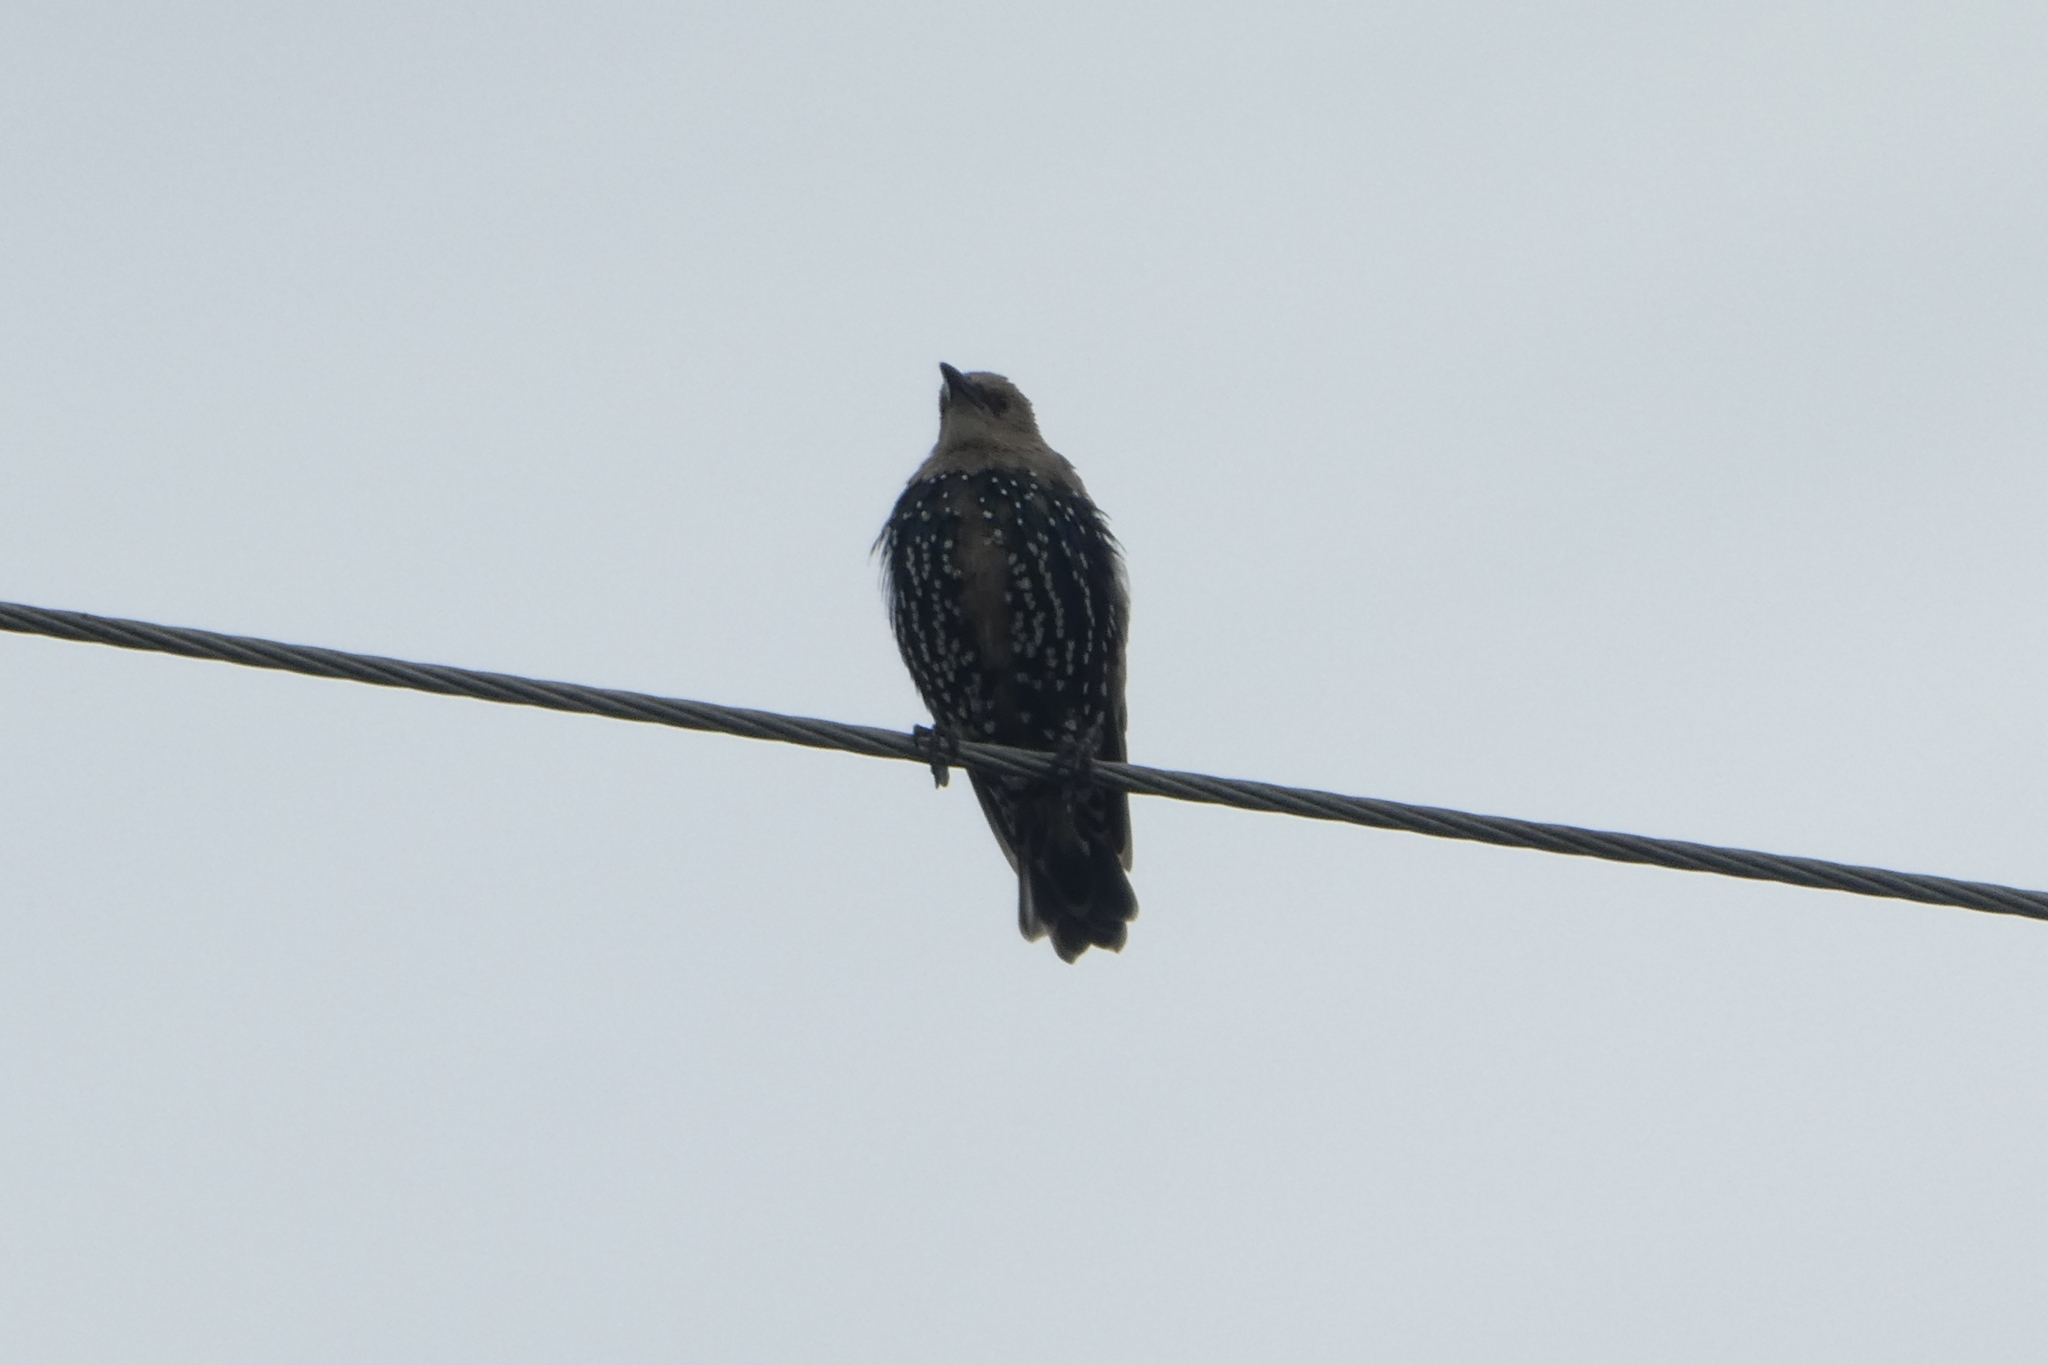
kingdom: Animalia
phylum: Chordata
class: Aves
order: Passeriformes
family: Sturnidae
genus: Sturnus
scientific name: Sturnus vulgaris
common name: Common starling
